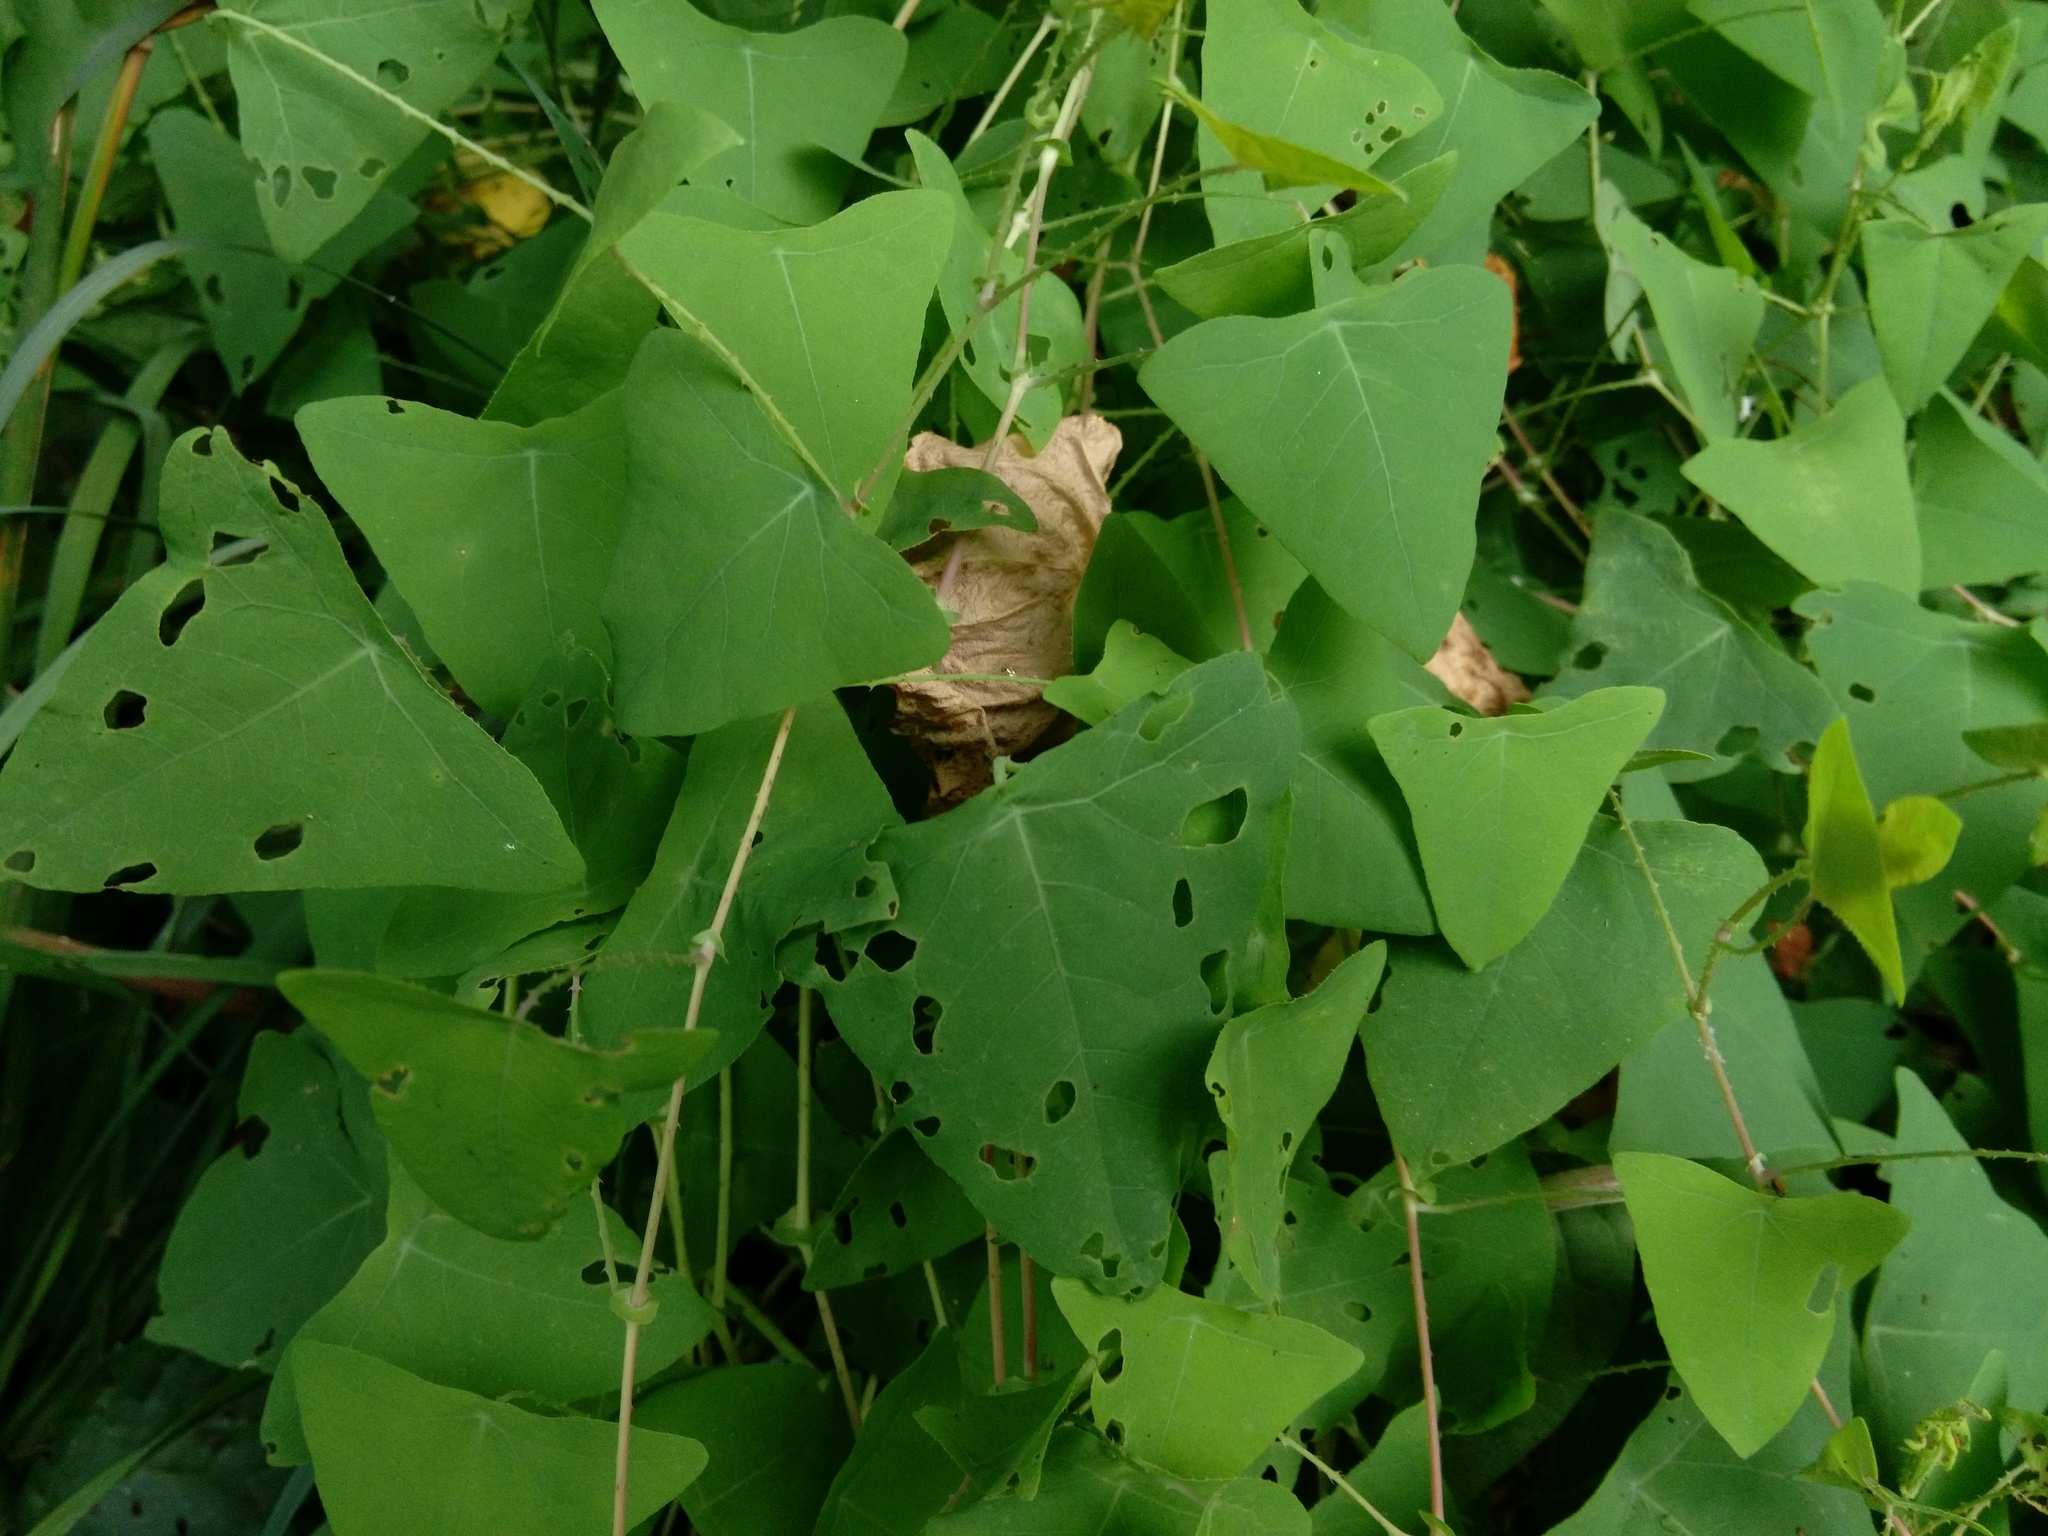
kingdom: Plantae
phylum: Tracheophyta
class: Magnoliopsida
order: Caryophyllales
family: Polygonaceae
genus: Persicaria
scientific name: Persicaria perfoliata
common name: Asiatic tearthumb
